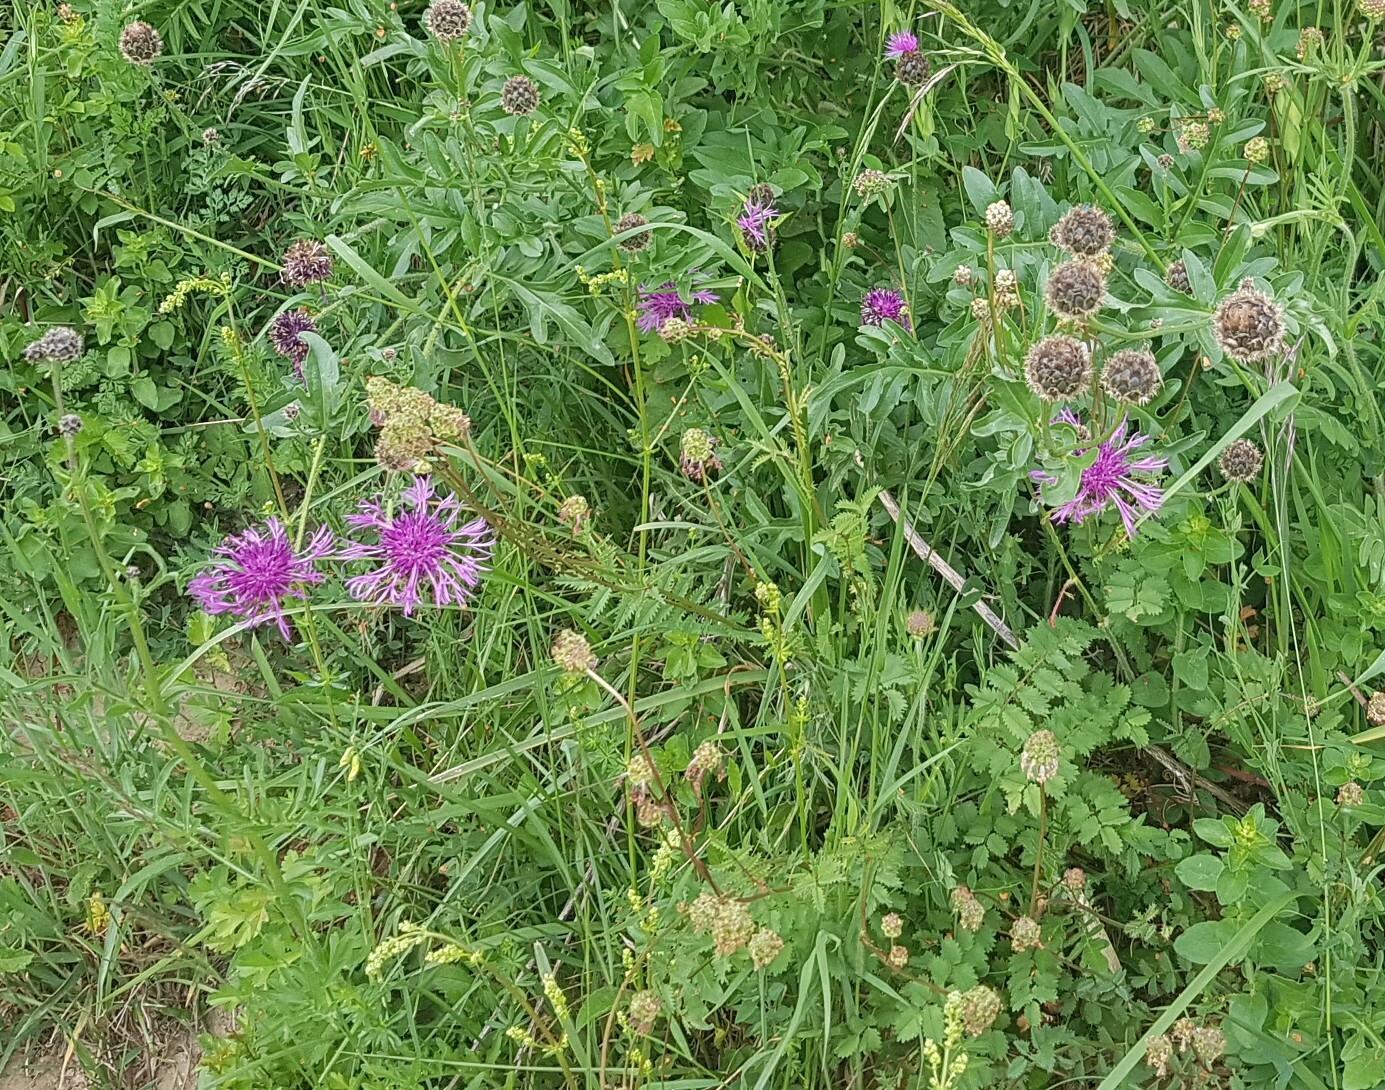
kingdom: Plantae
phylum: Tracheophyta
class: Magnoliopsida
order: Asterales
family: Asteraceae
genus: Centaurea
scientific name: Centaurea scabiosa
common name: Greater knapweed
